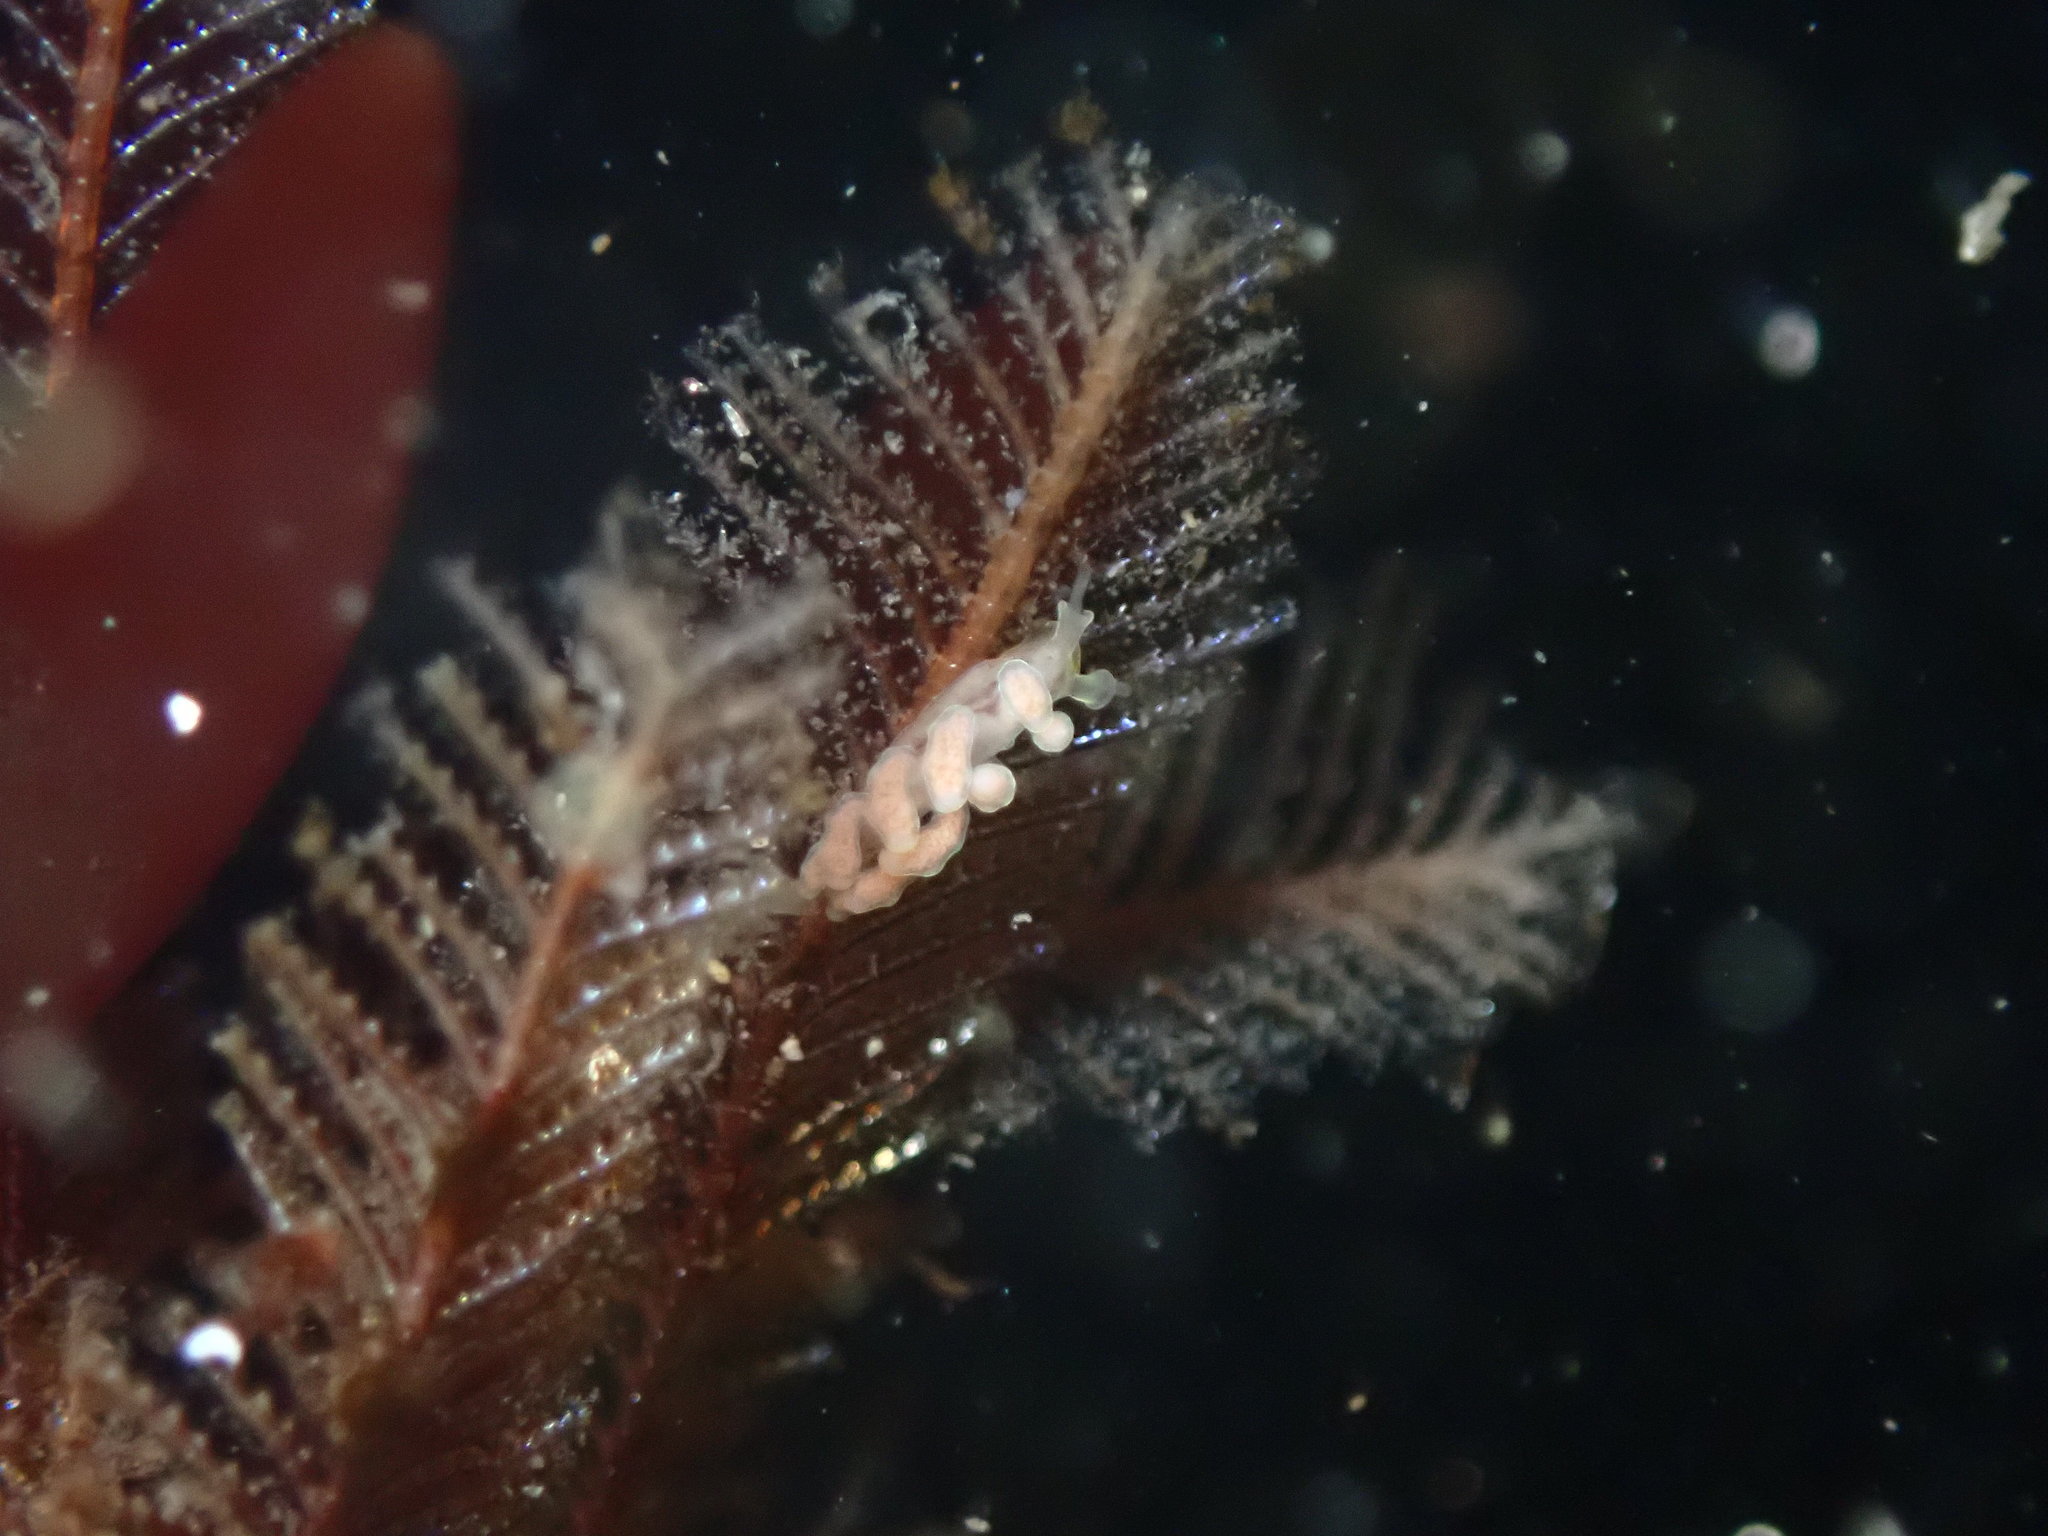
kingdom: Animalia
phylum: Mollusca
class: Gastropoda
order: Nudibranchia
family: Dotidae
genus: Doto
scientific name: Doto columbiana
